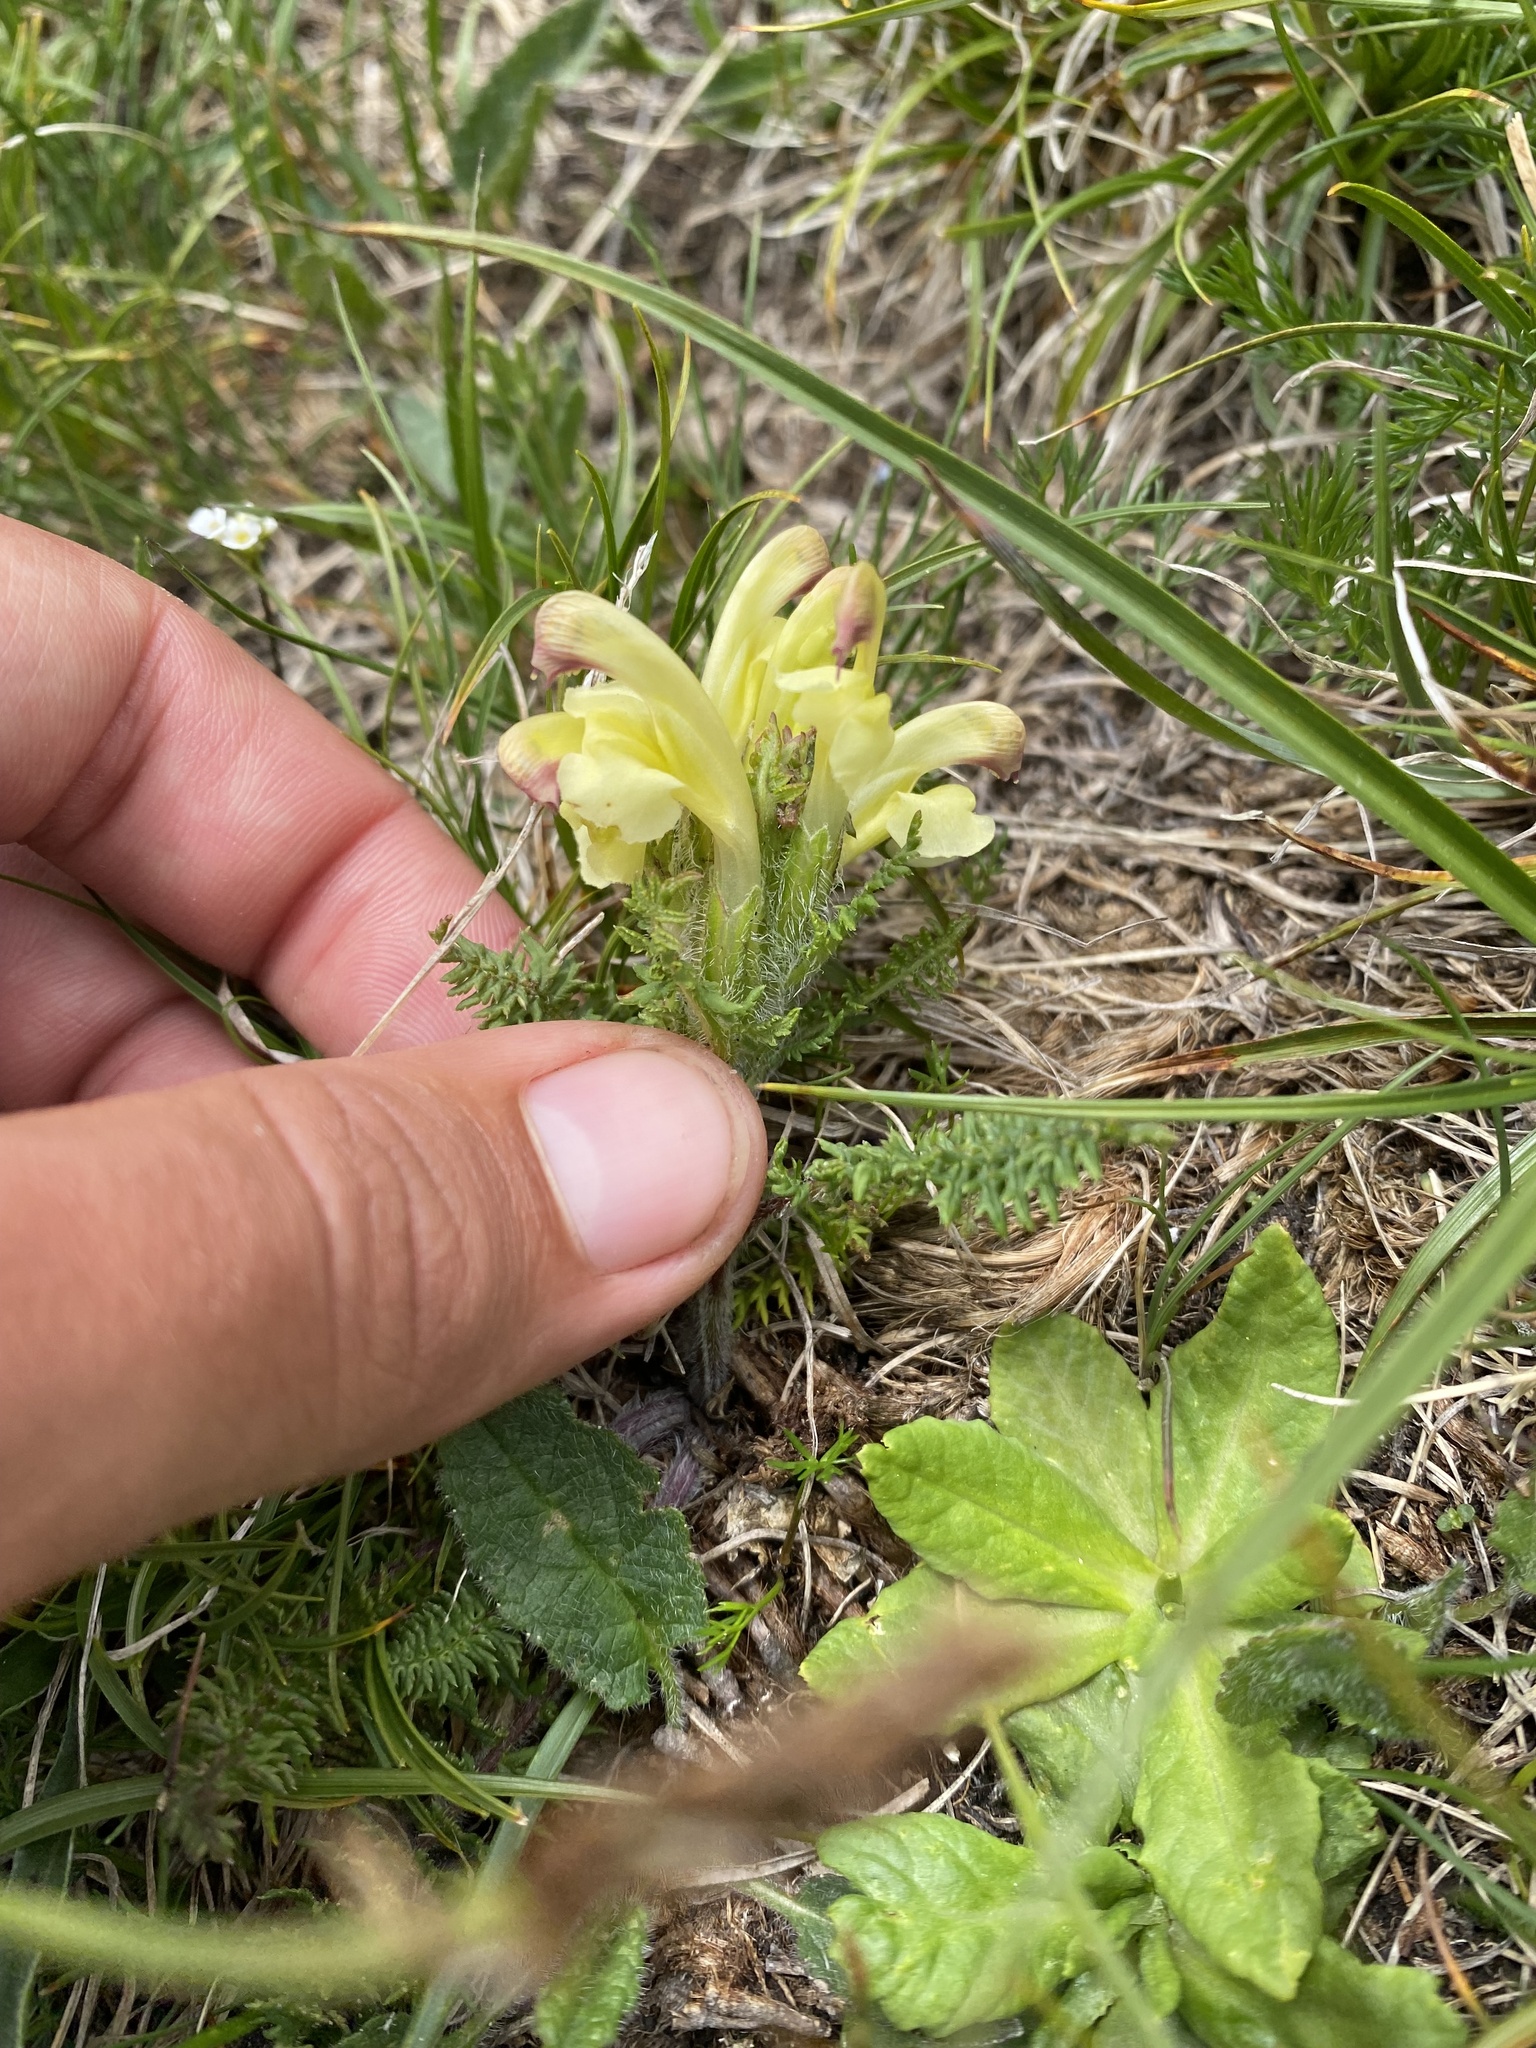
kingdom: Plantae
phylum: Tracheophyta
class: Magnoliopsida
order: Lamiales
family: Orobanchaceae
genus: Pedicularis
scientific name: Pedicularis chroorrhyncha
